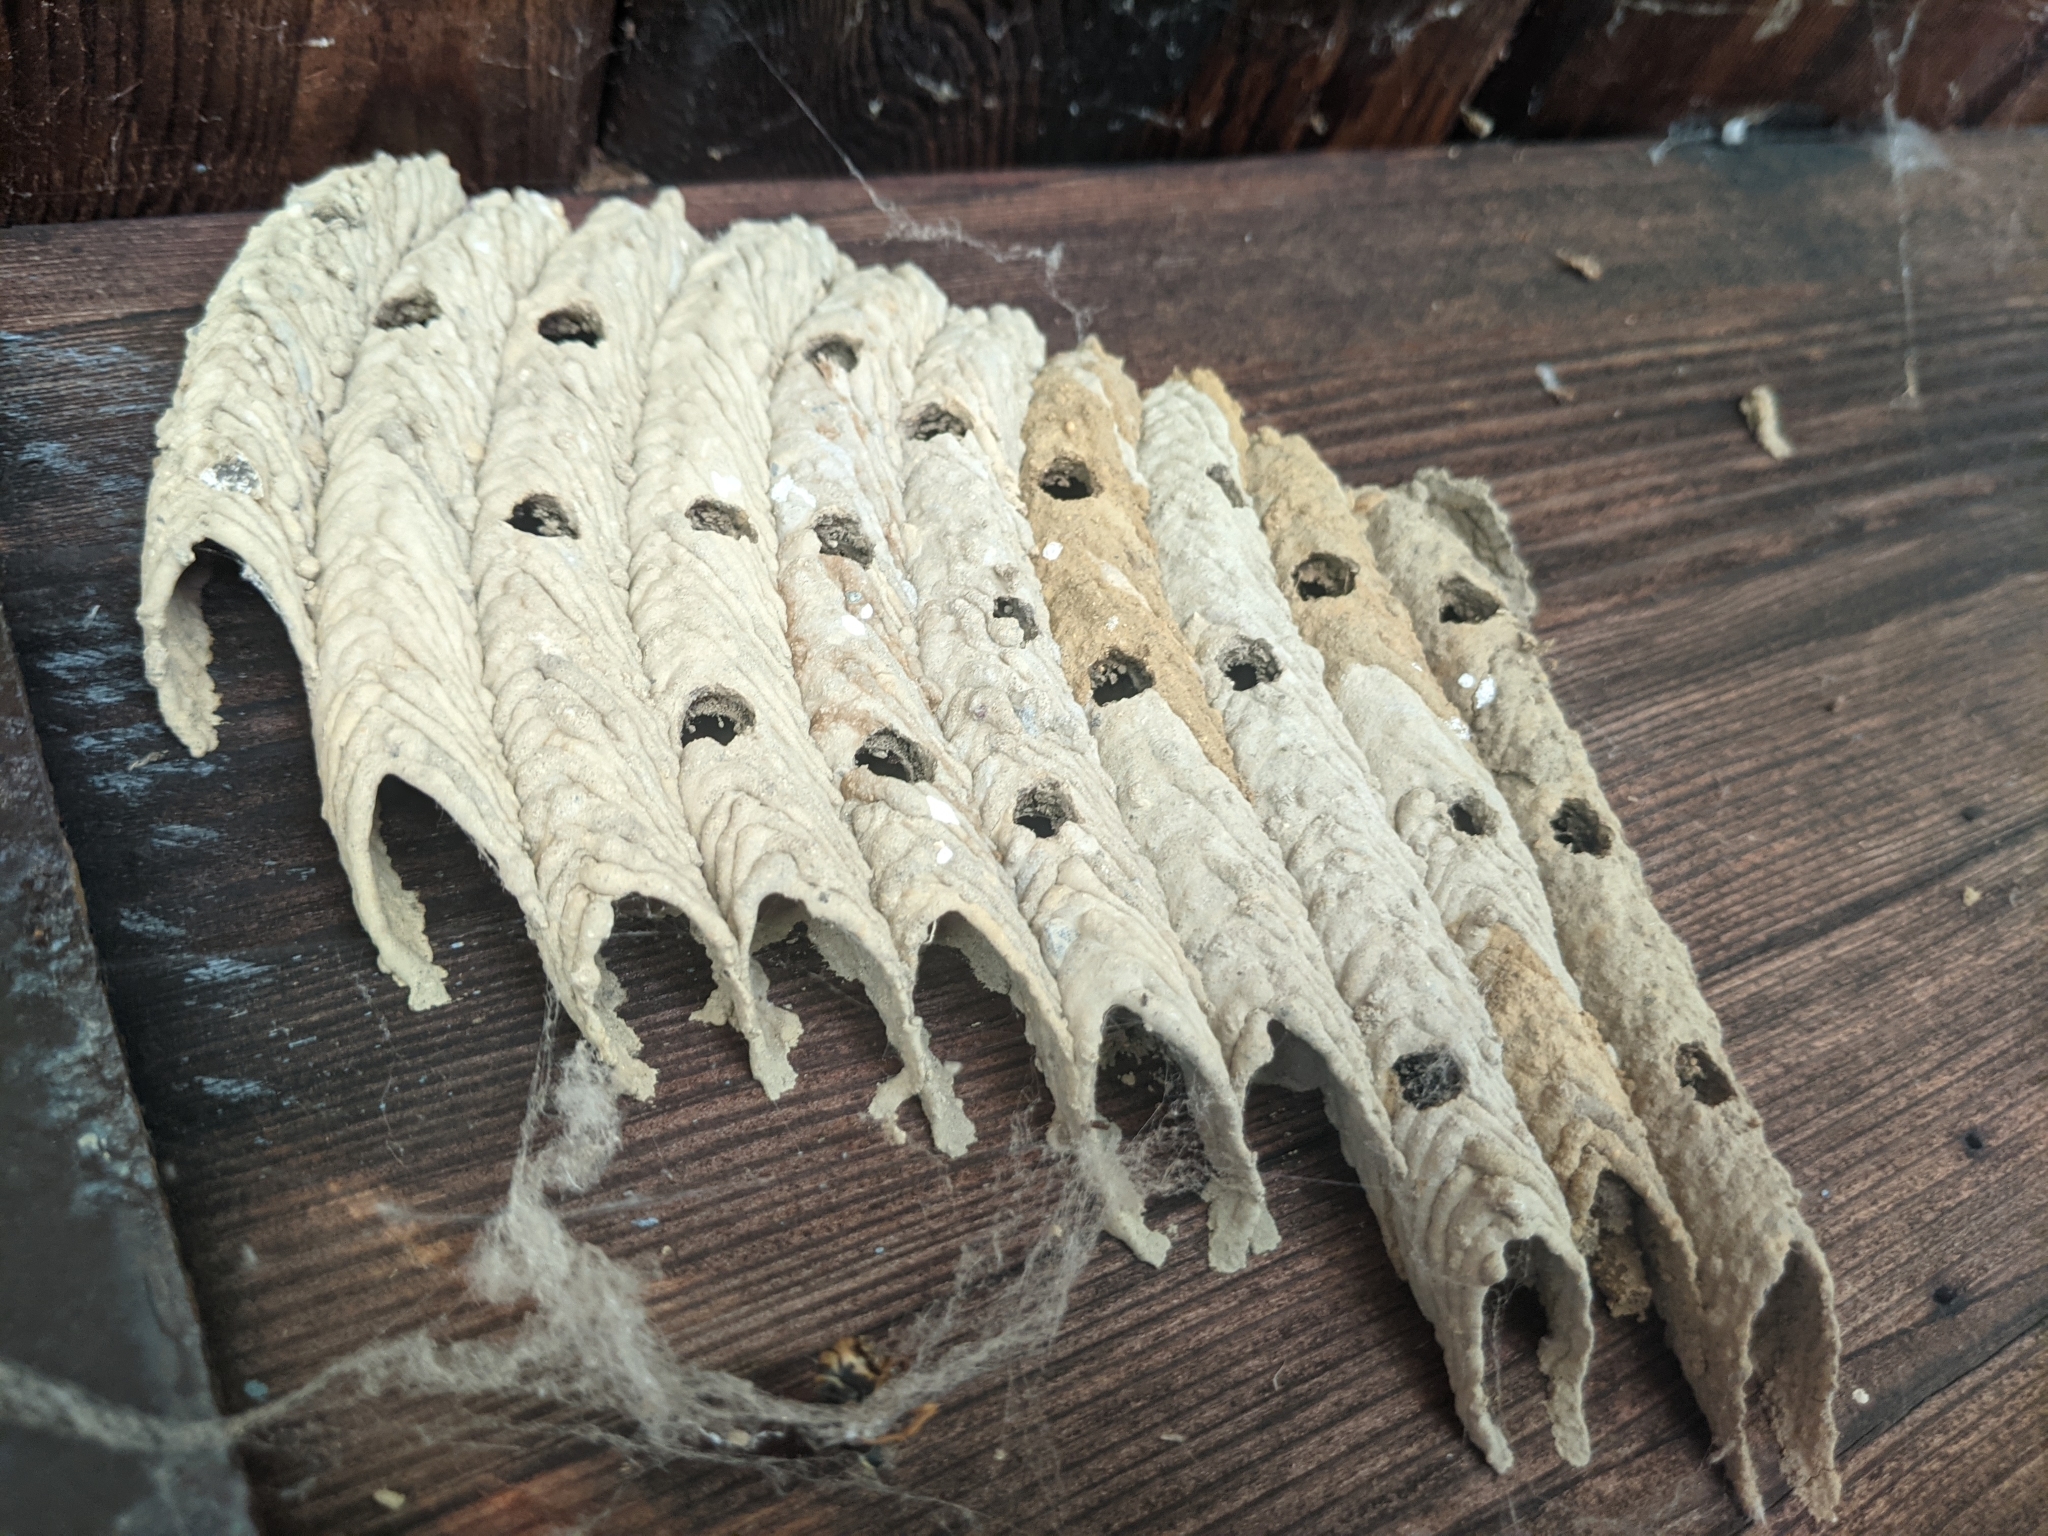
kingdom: Animalia
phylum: Arthropoda
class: Insecta
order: Hymenoptera
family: Crabronidae
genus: Trypoxylon
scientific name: Trypoxylon politum
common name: Organ-pipe mud-dauber wasp
